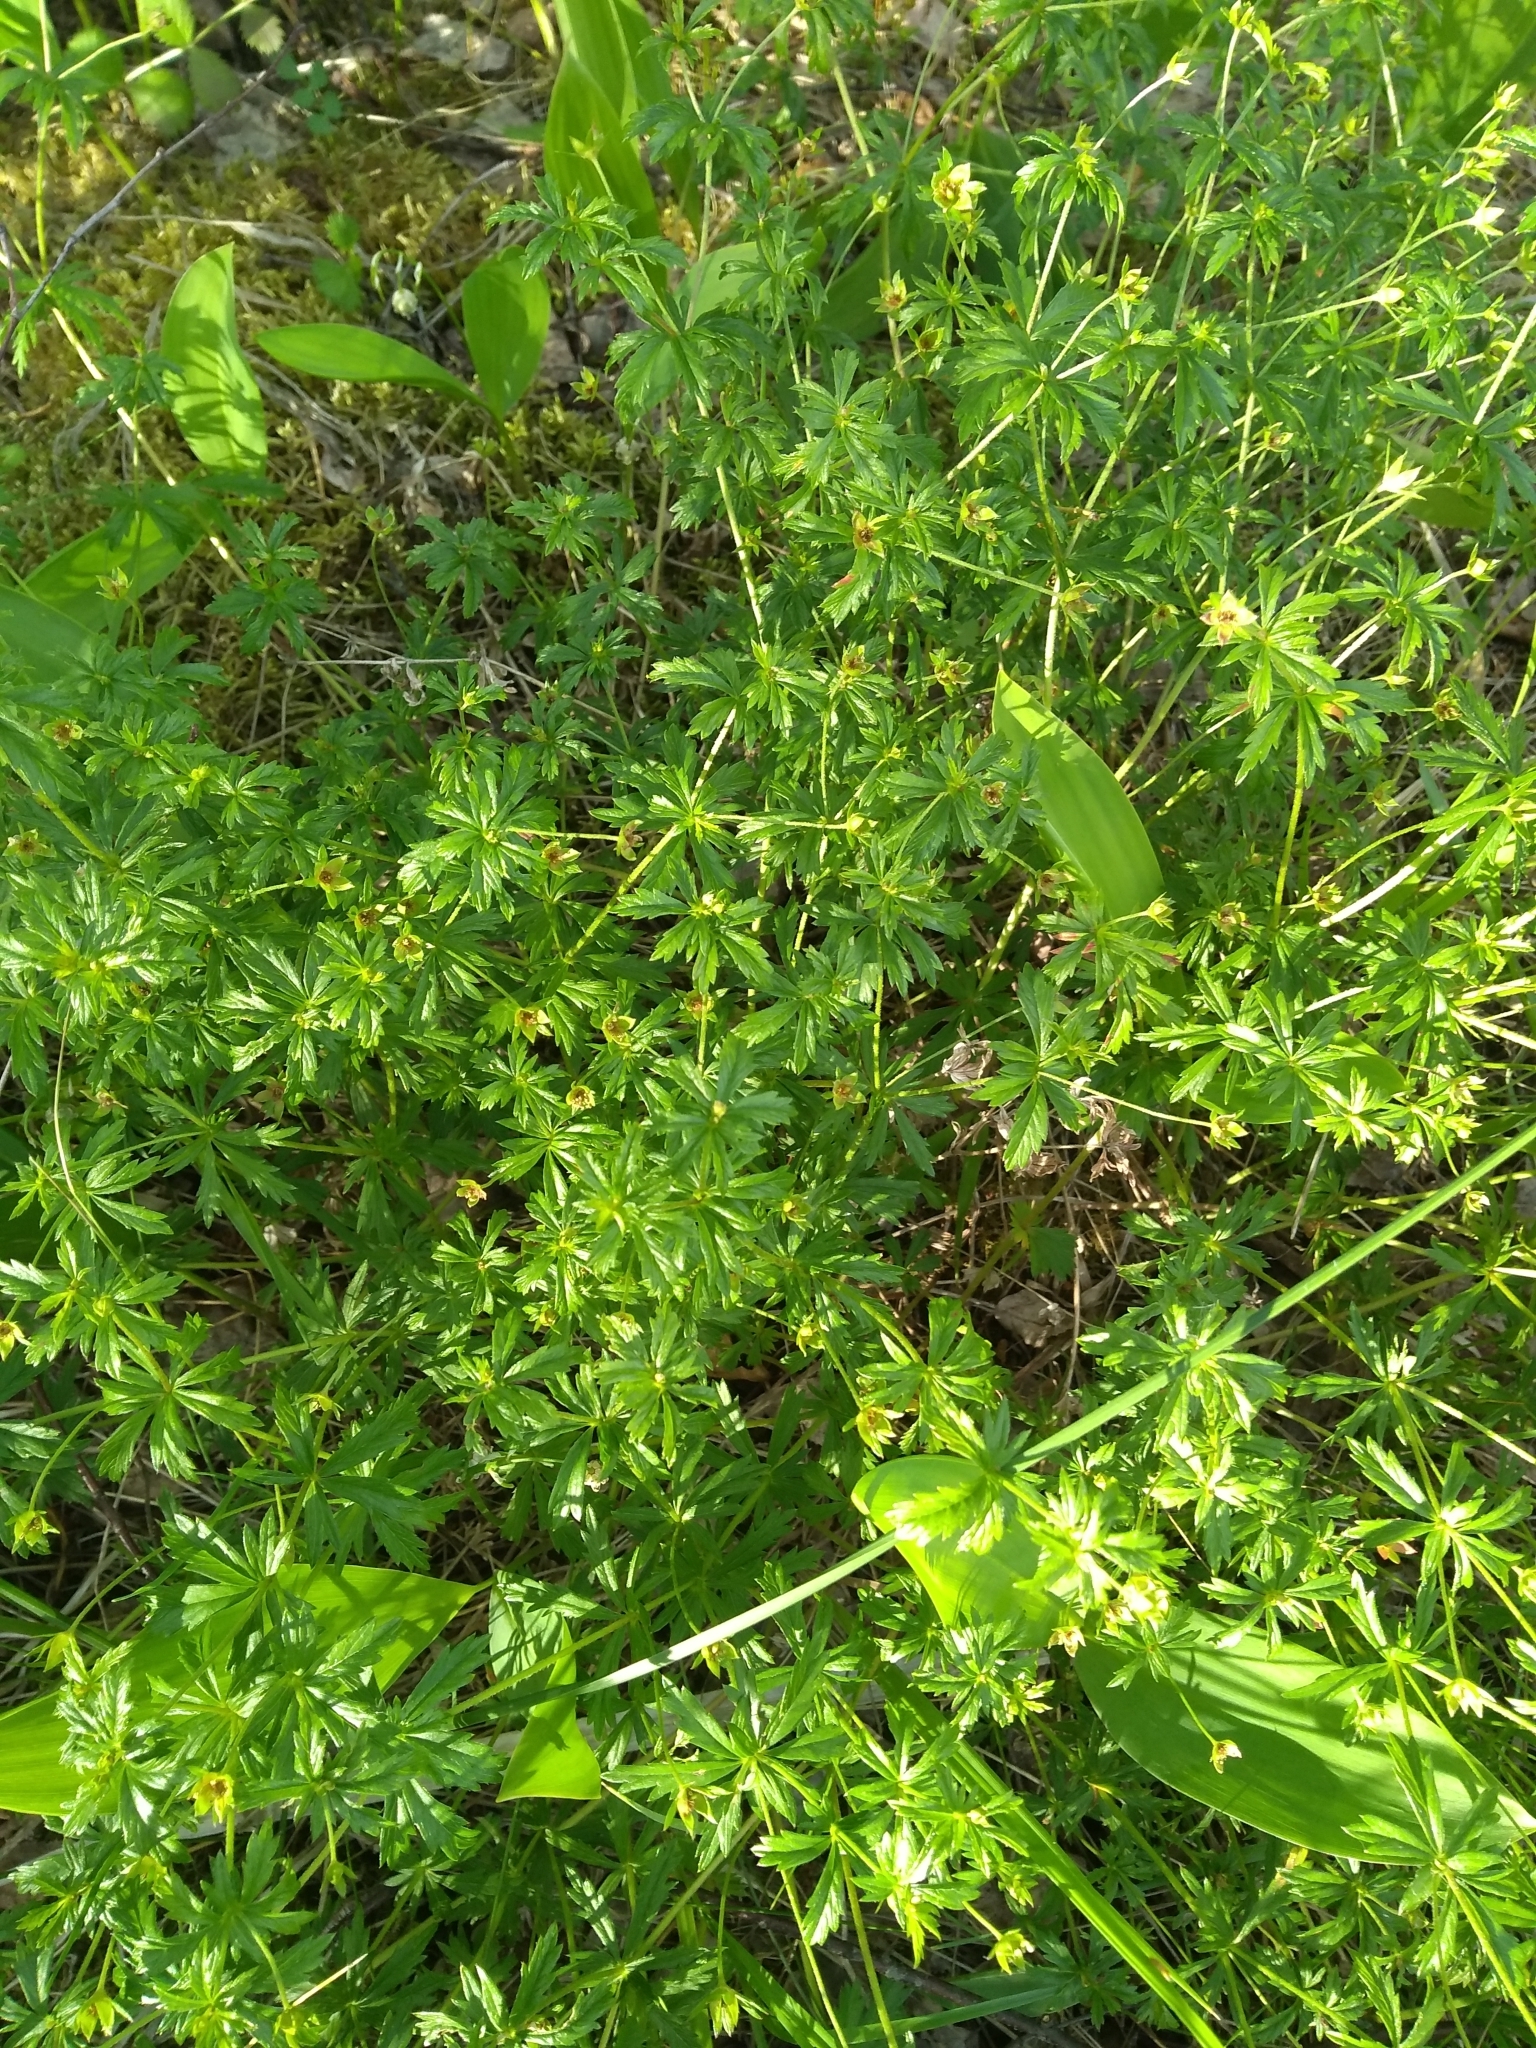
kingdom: Plantae
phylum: Tracheophyta
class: Magnoliopsida
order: Rosales
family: Rosaceae
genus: Potentilla
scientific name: Potentilla erecta
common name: Tormentil
